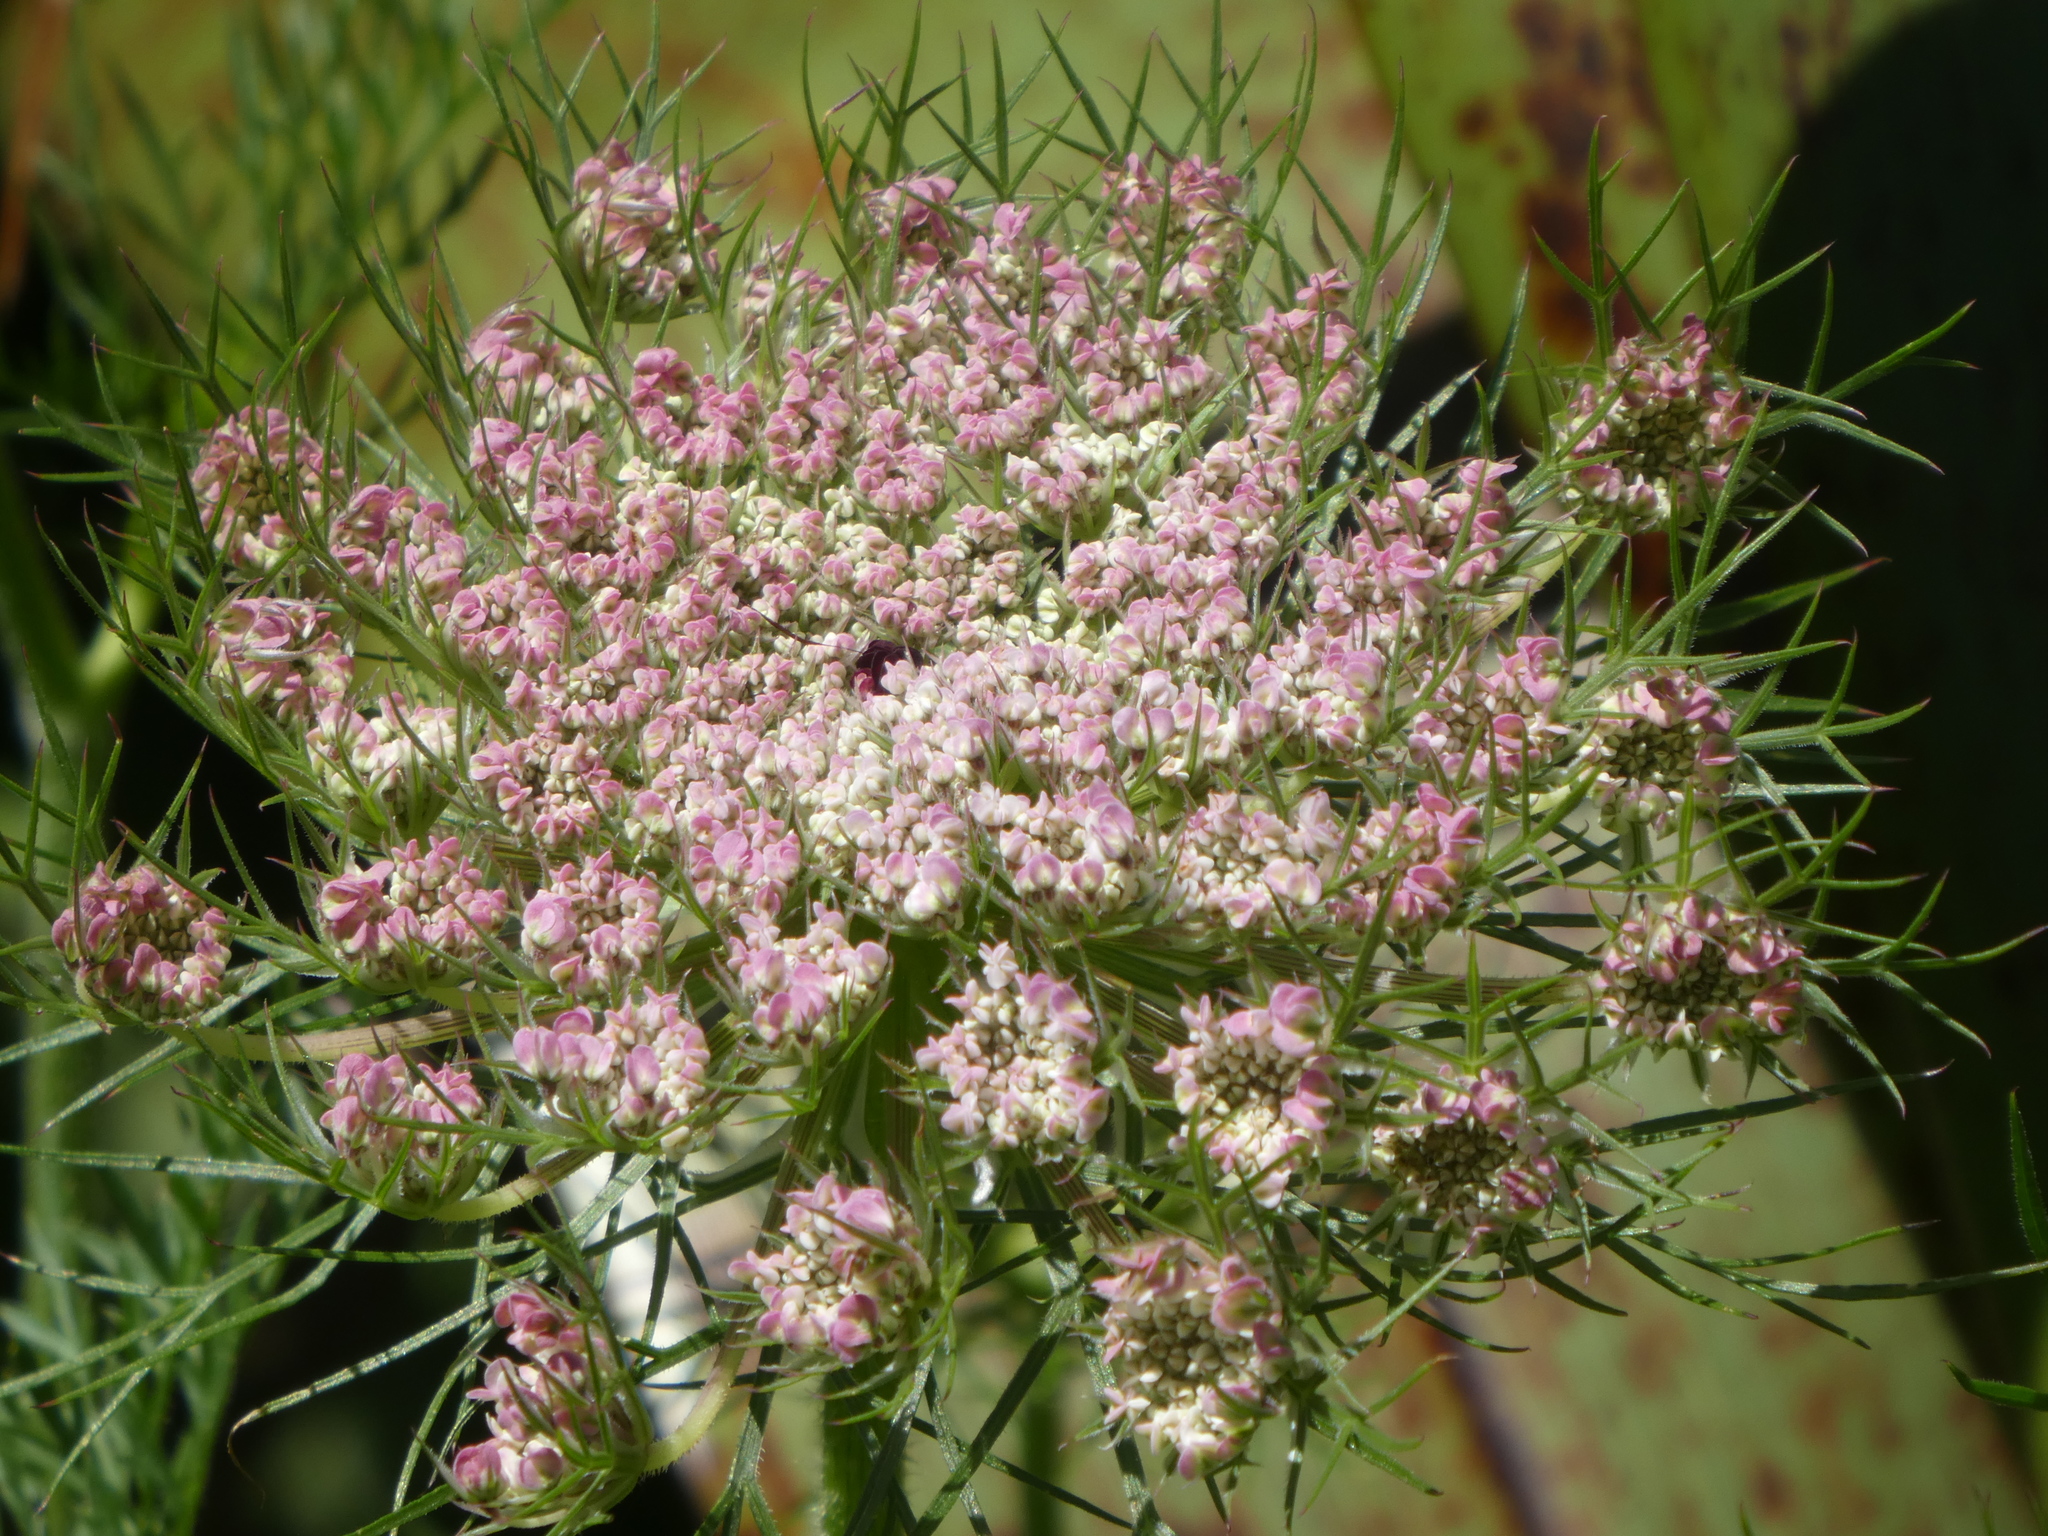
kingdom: Plantae
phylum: Tracheophyta
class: Magnoliopsida
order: Apiales
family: Apiaceae
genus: Daucus
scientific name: Daucus carota
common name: Wild carrot
